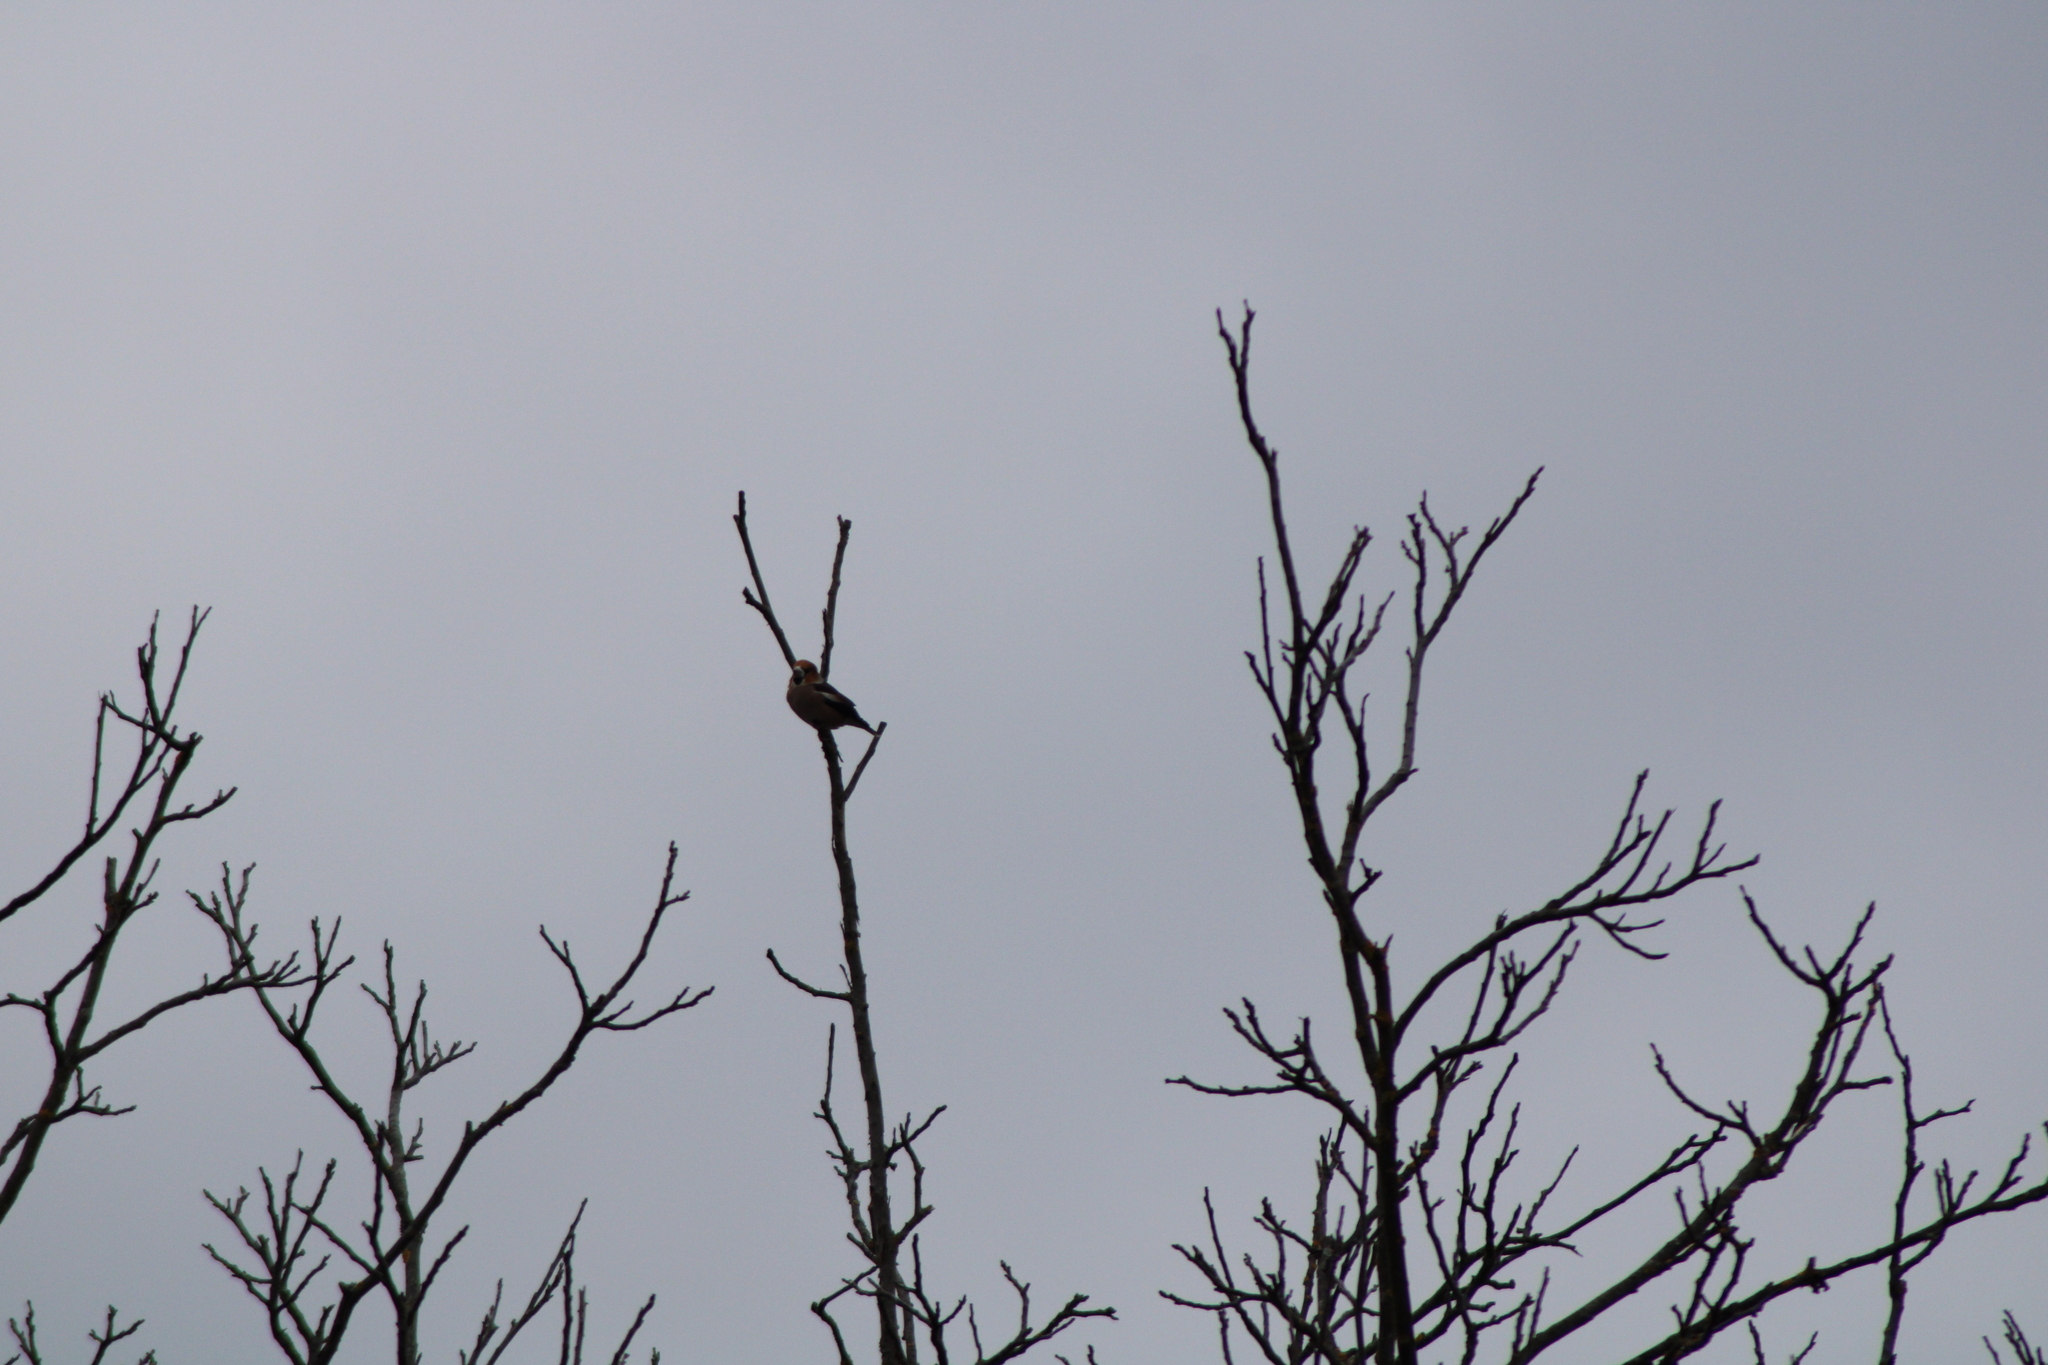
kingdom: Animalia
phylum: Chordata
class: Aves
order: Passeriformes
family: Fringillidae
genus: Coccothraustes
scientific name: Coccothraustes coccothraustes
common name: Hawfinch
